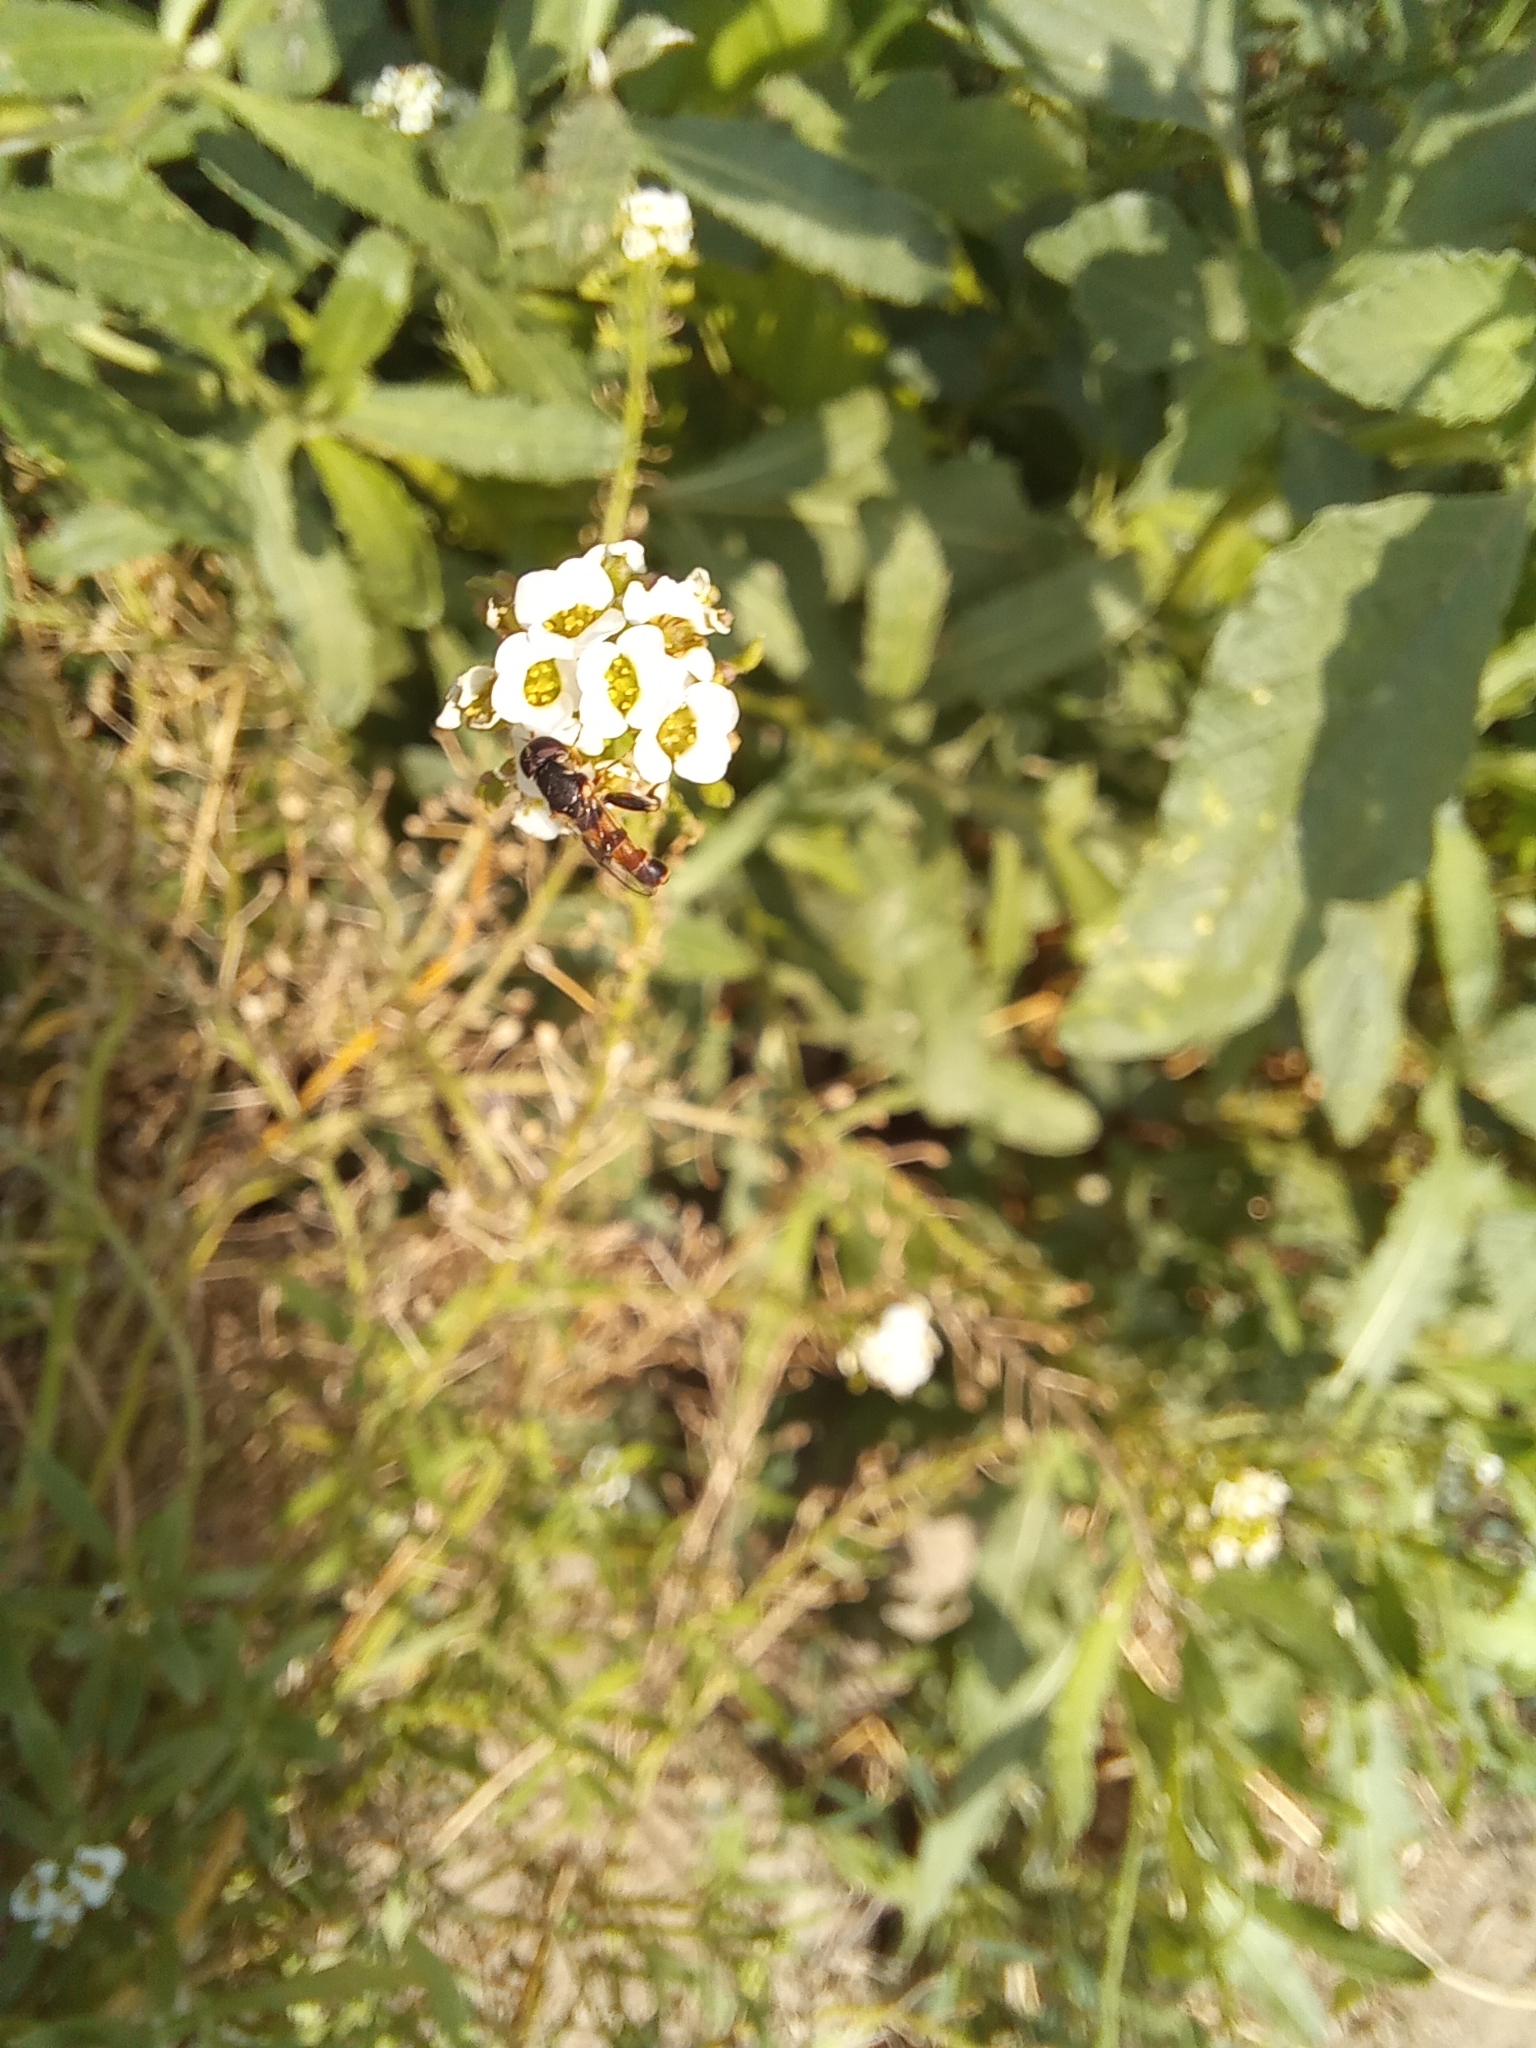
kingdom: Animalia
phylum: Arthropoda
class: Insecta
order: Diptera
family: Syrphidae
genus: Syritta
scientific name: Syritta pipiens
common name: Hover fly
